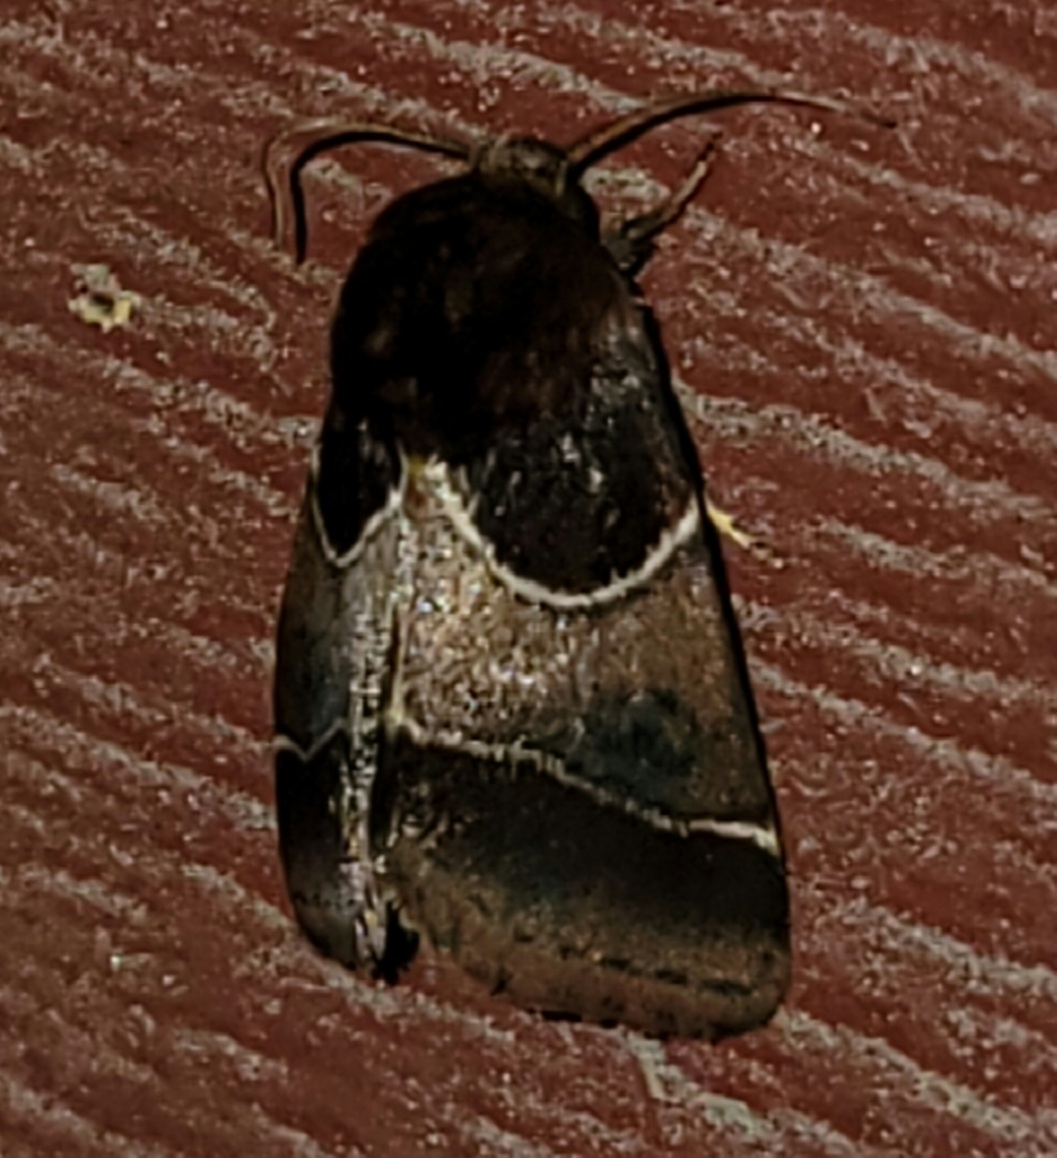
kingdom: Animalia
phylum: Arthropoda
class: Insecta
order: Lepidoptera
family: Noctuidae
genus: Schinia
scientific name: Schinia arcigera
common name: Arcigera flower moth
